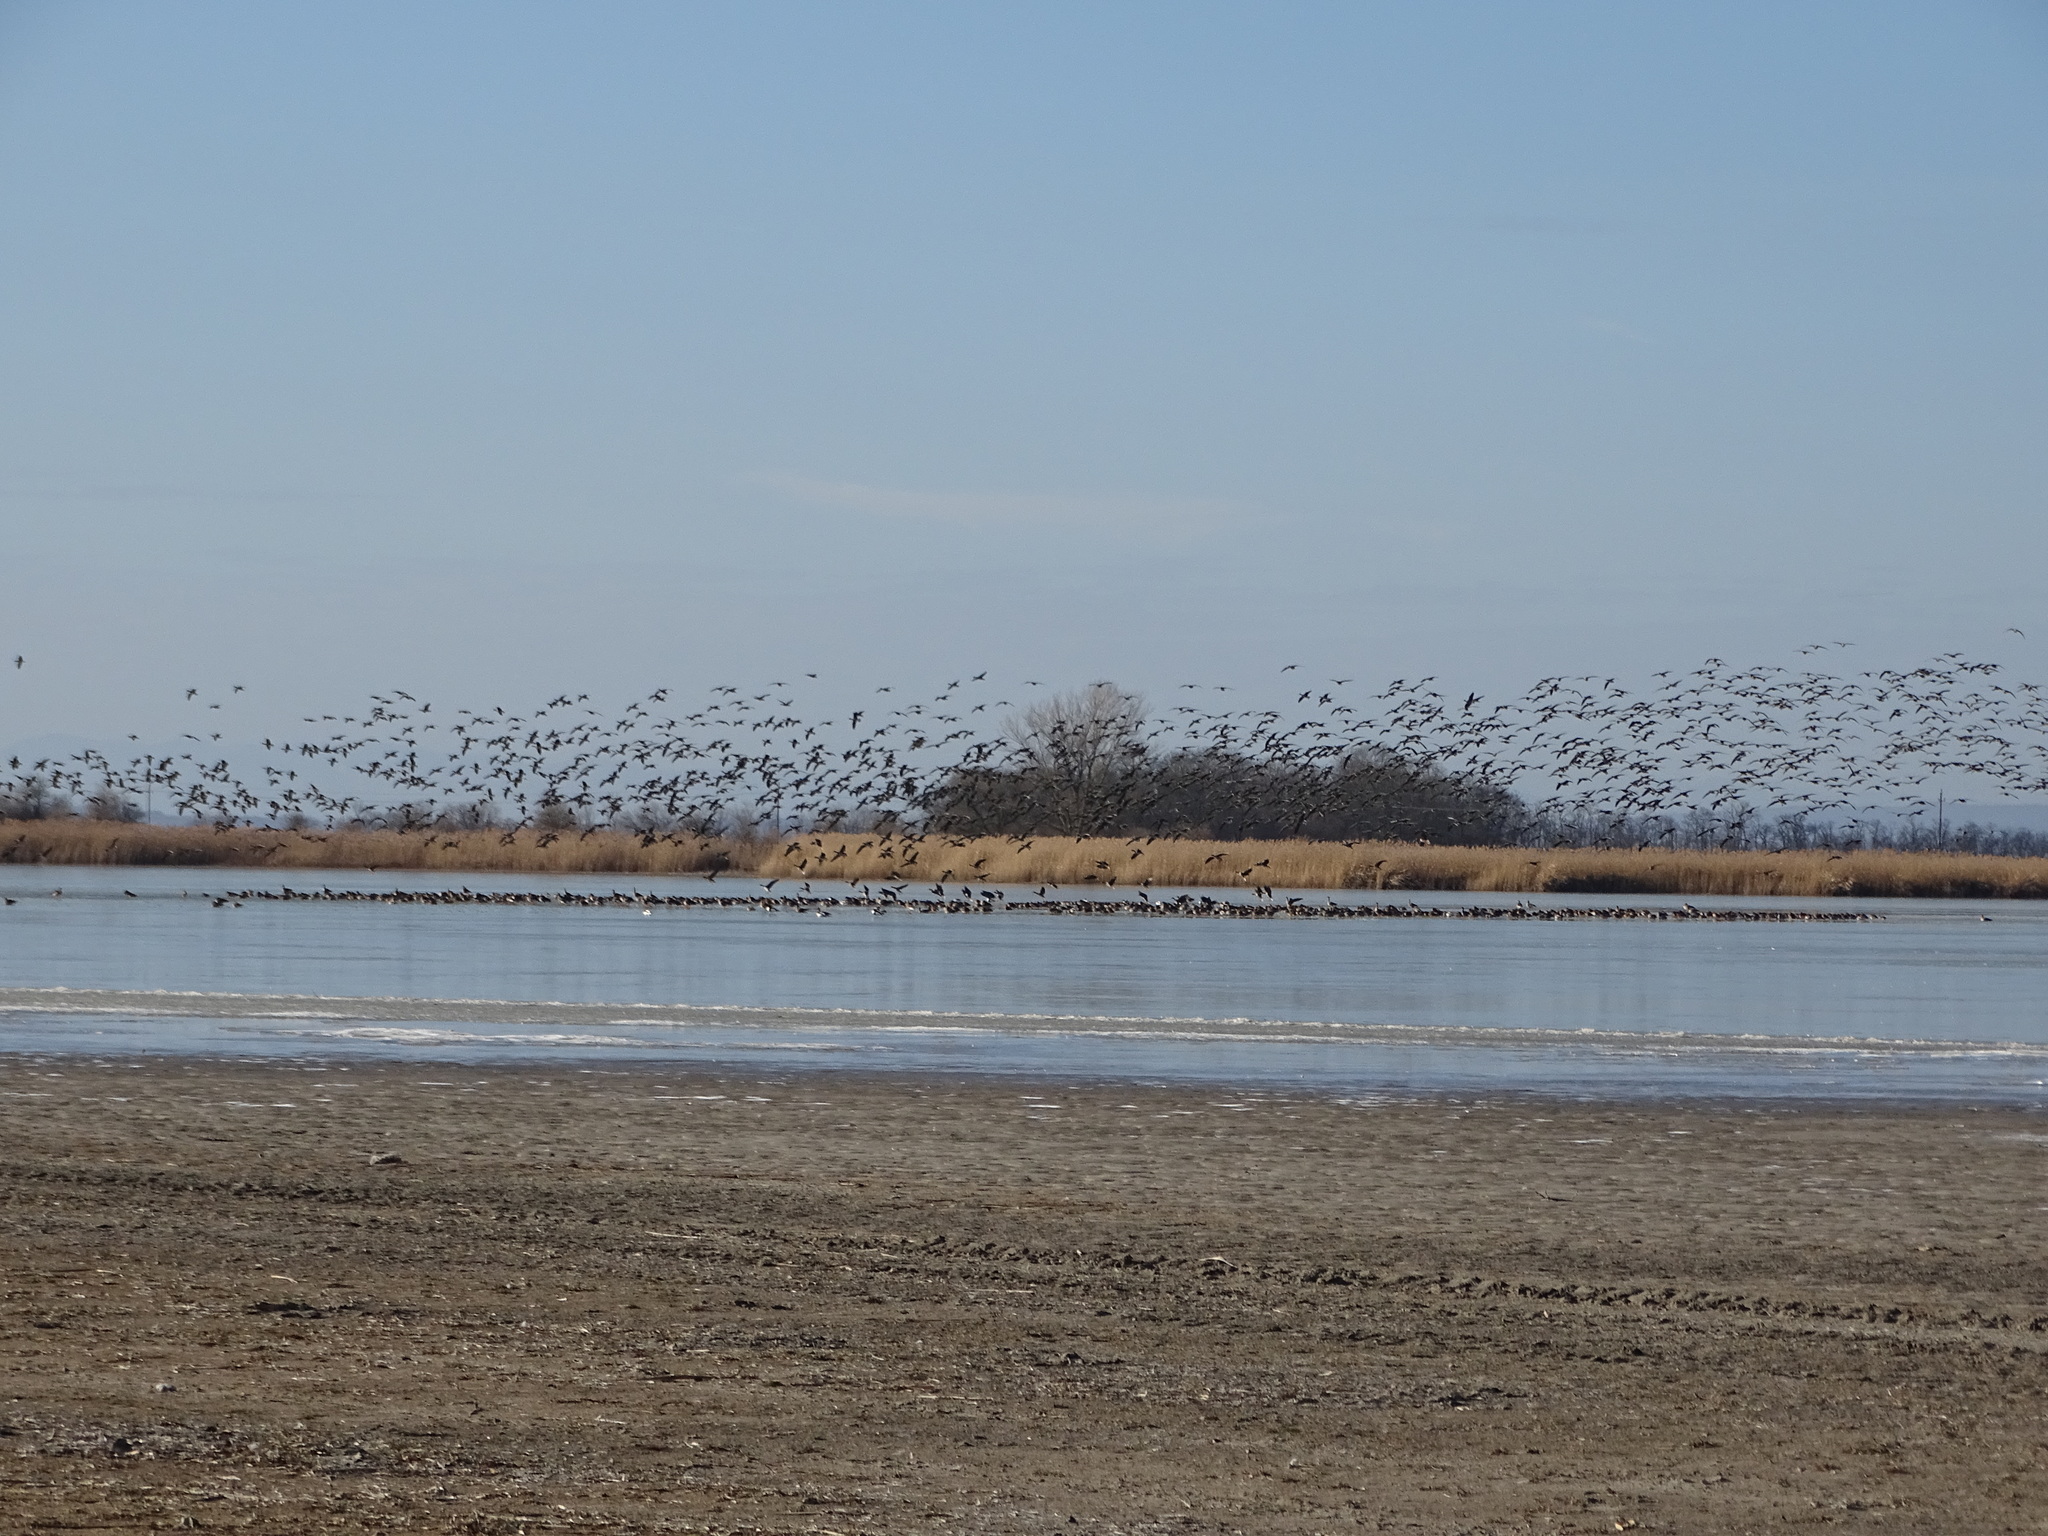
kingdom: Animalia
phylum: Chordata
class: Aves
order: Anseriformes
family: Anatidae
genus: Anser
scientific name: Anser albifrons
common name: Greater white-fronted goose
